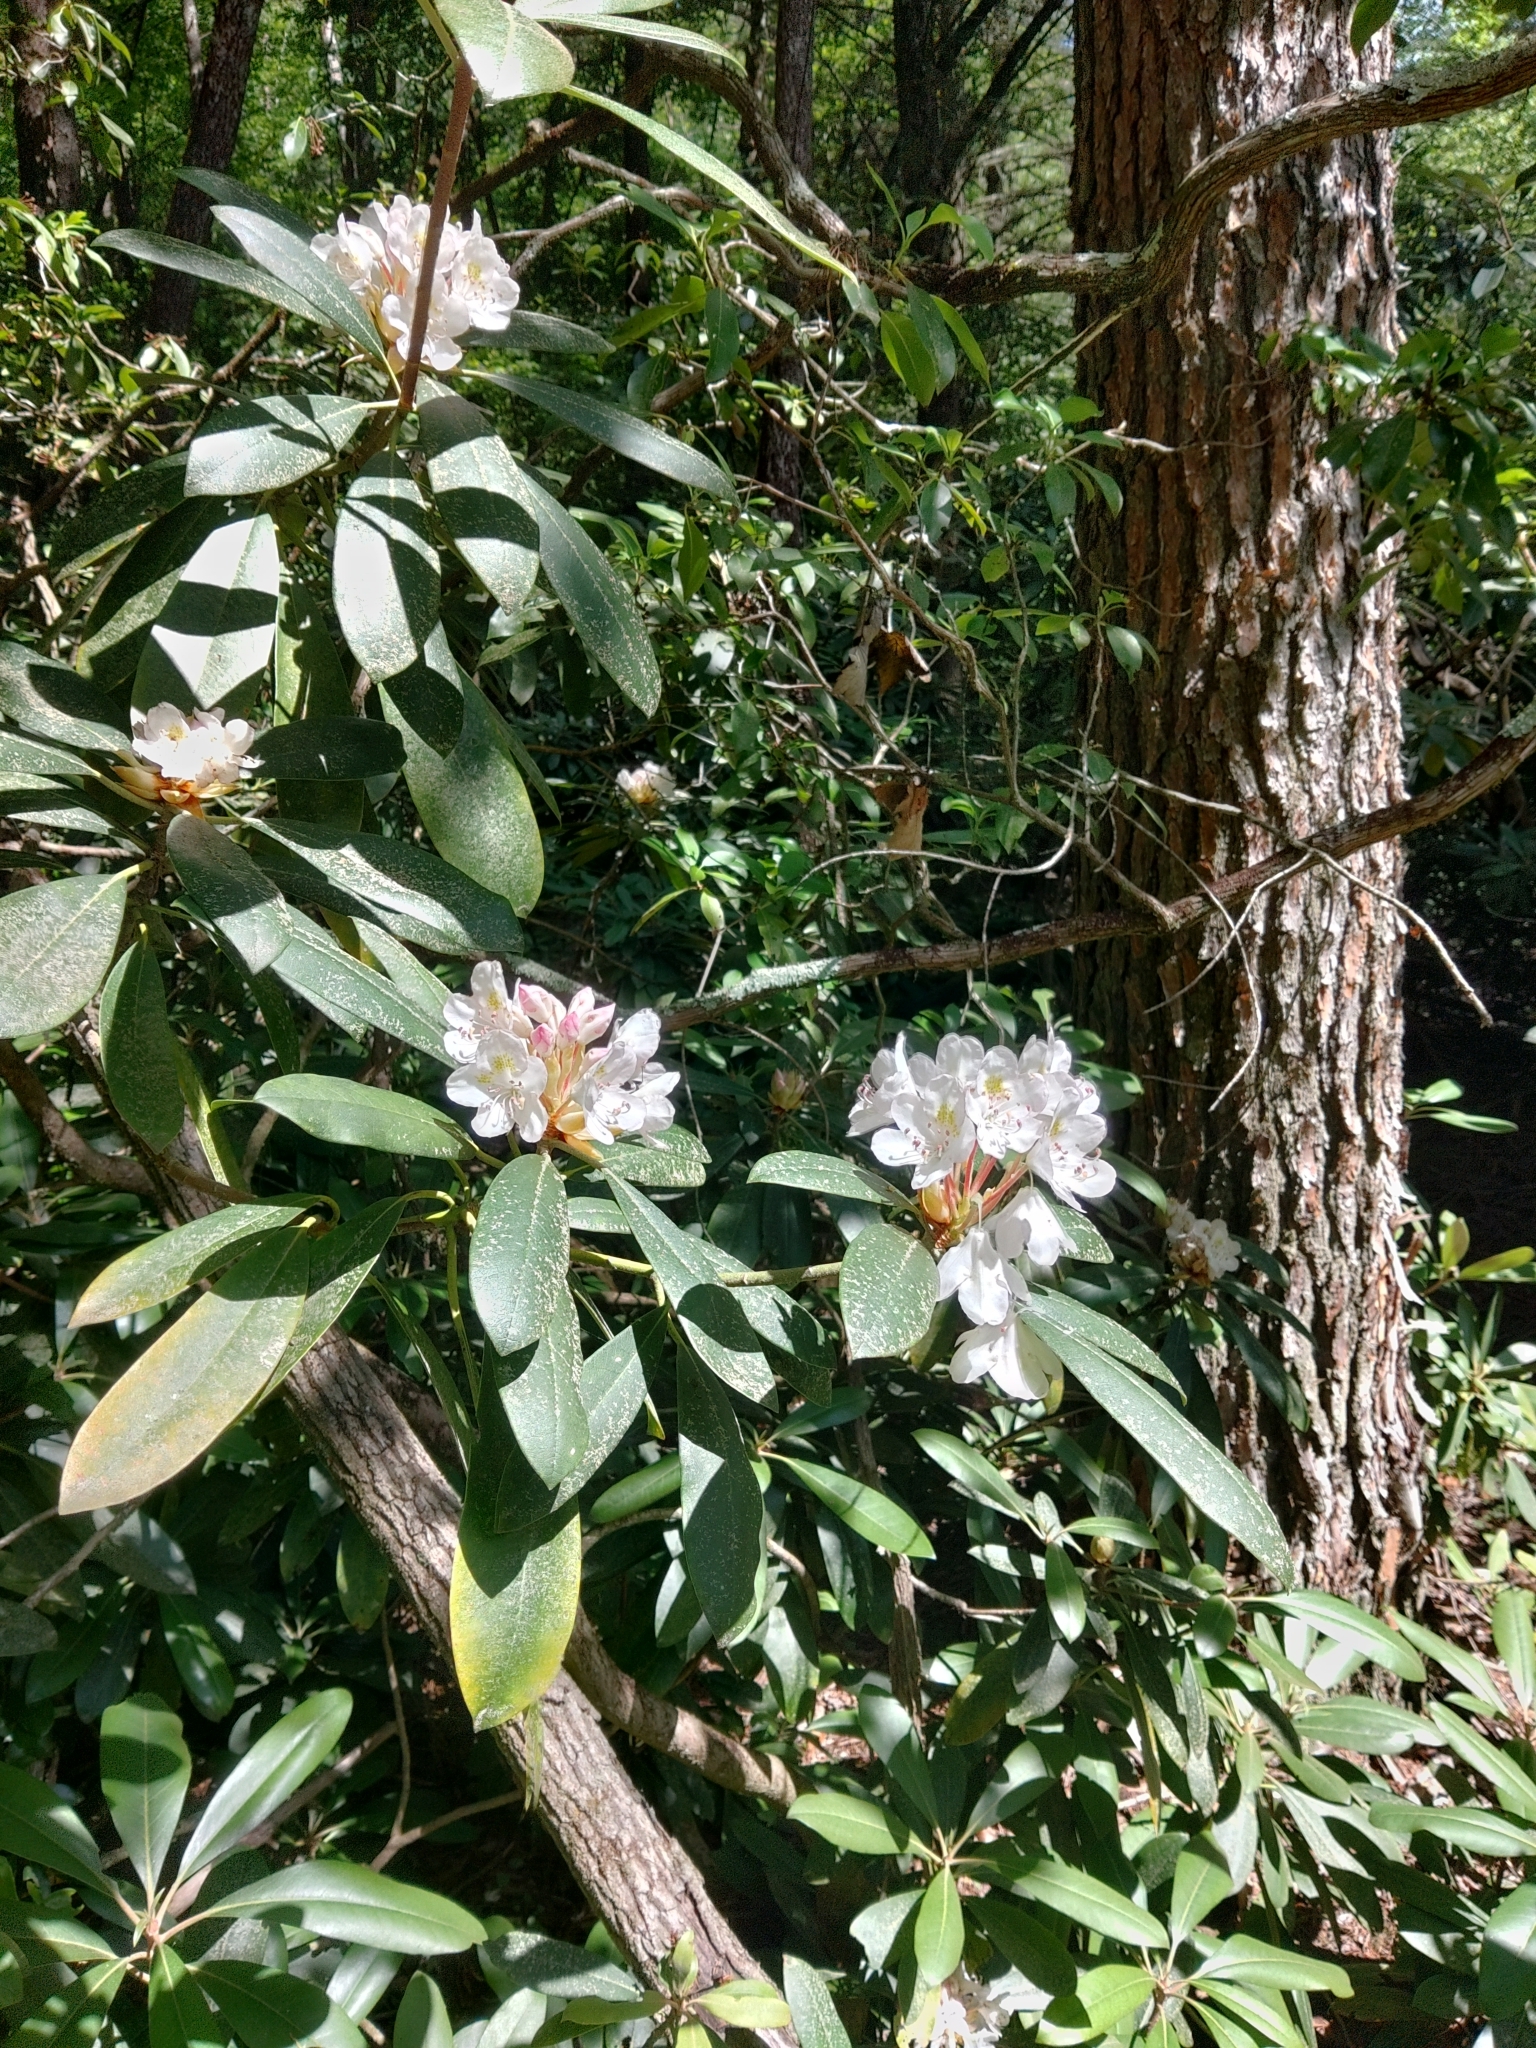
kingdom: Plantae
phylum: Tracheophyta
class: Magnoliopsida
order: Ericales
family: Ericaceae
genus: Rhododendron
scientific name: Rhododendron maximum
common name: Great rhododendron
